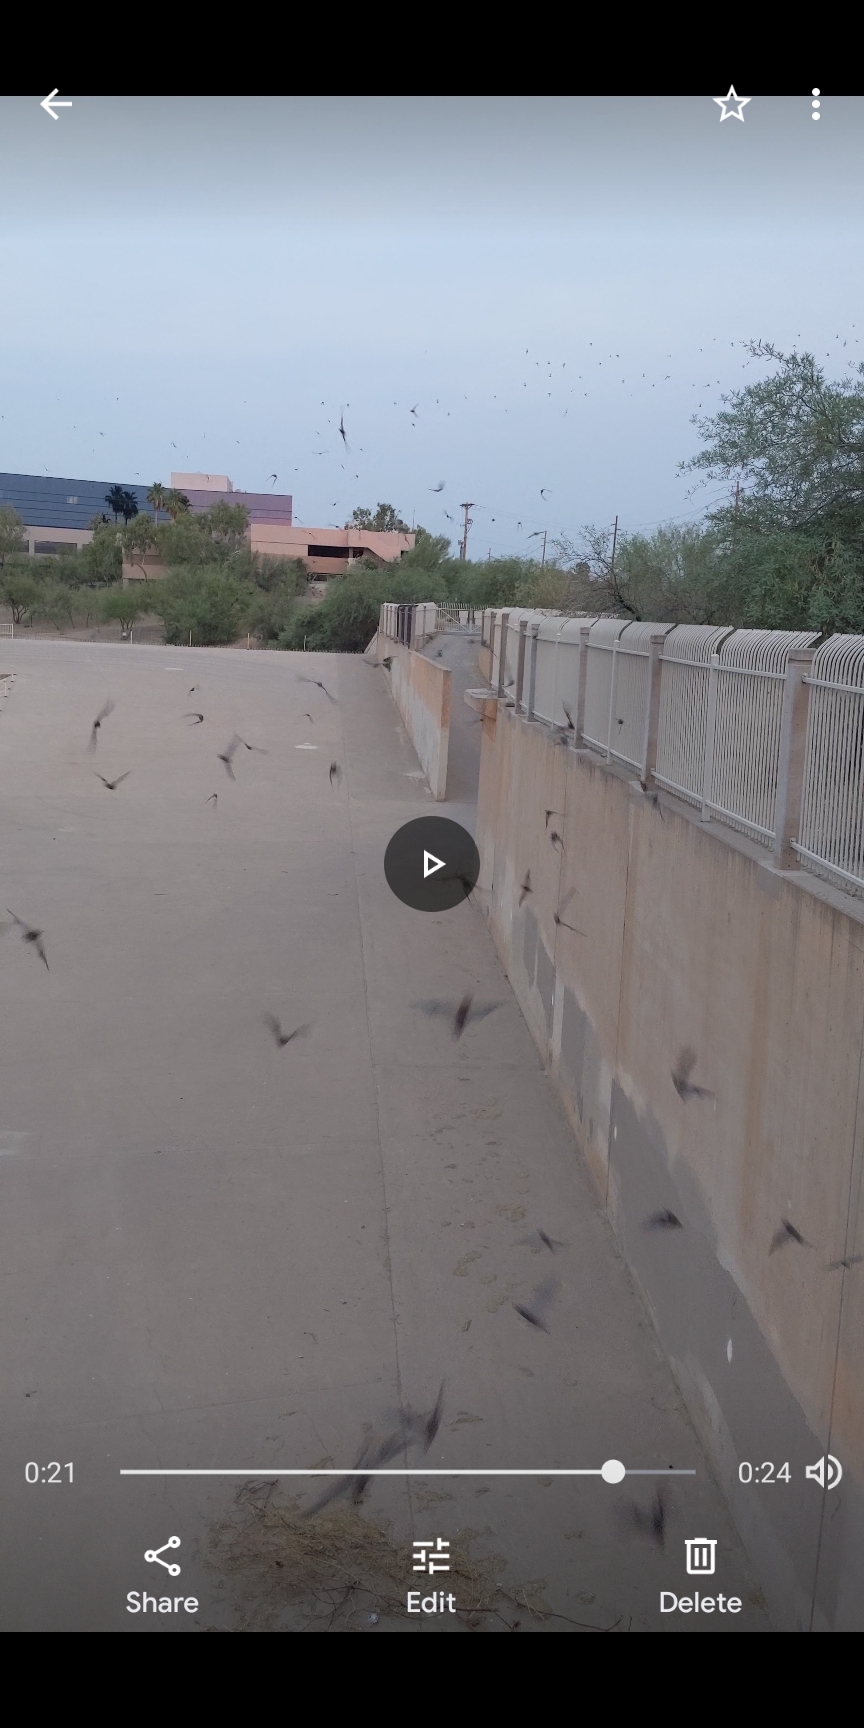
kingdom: Animalia
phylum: Chordata
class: Mammalia
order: Chiroptera
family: Molossidae
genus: Tadarida
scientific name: Tadarida brasiliensis
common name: Mexican free-tailed bat
